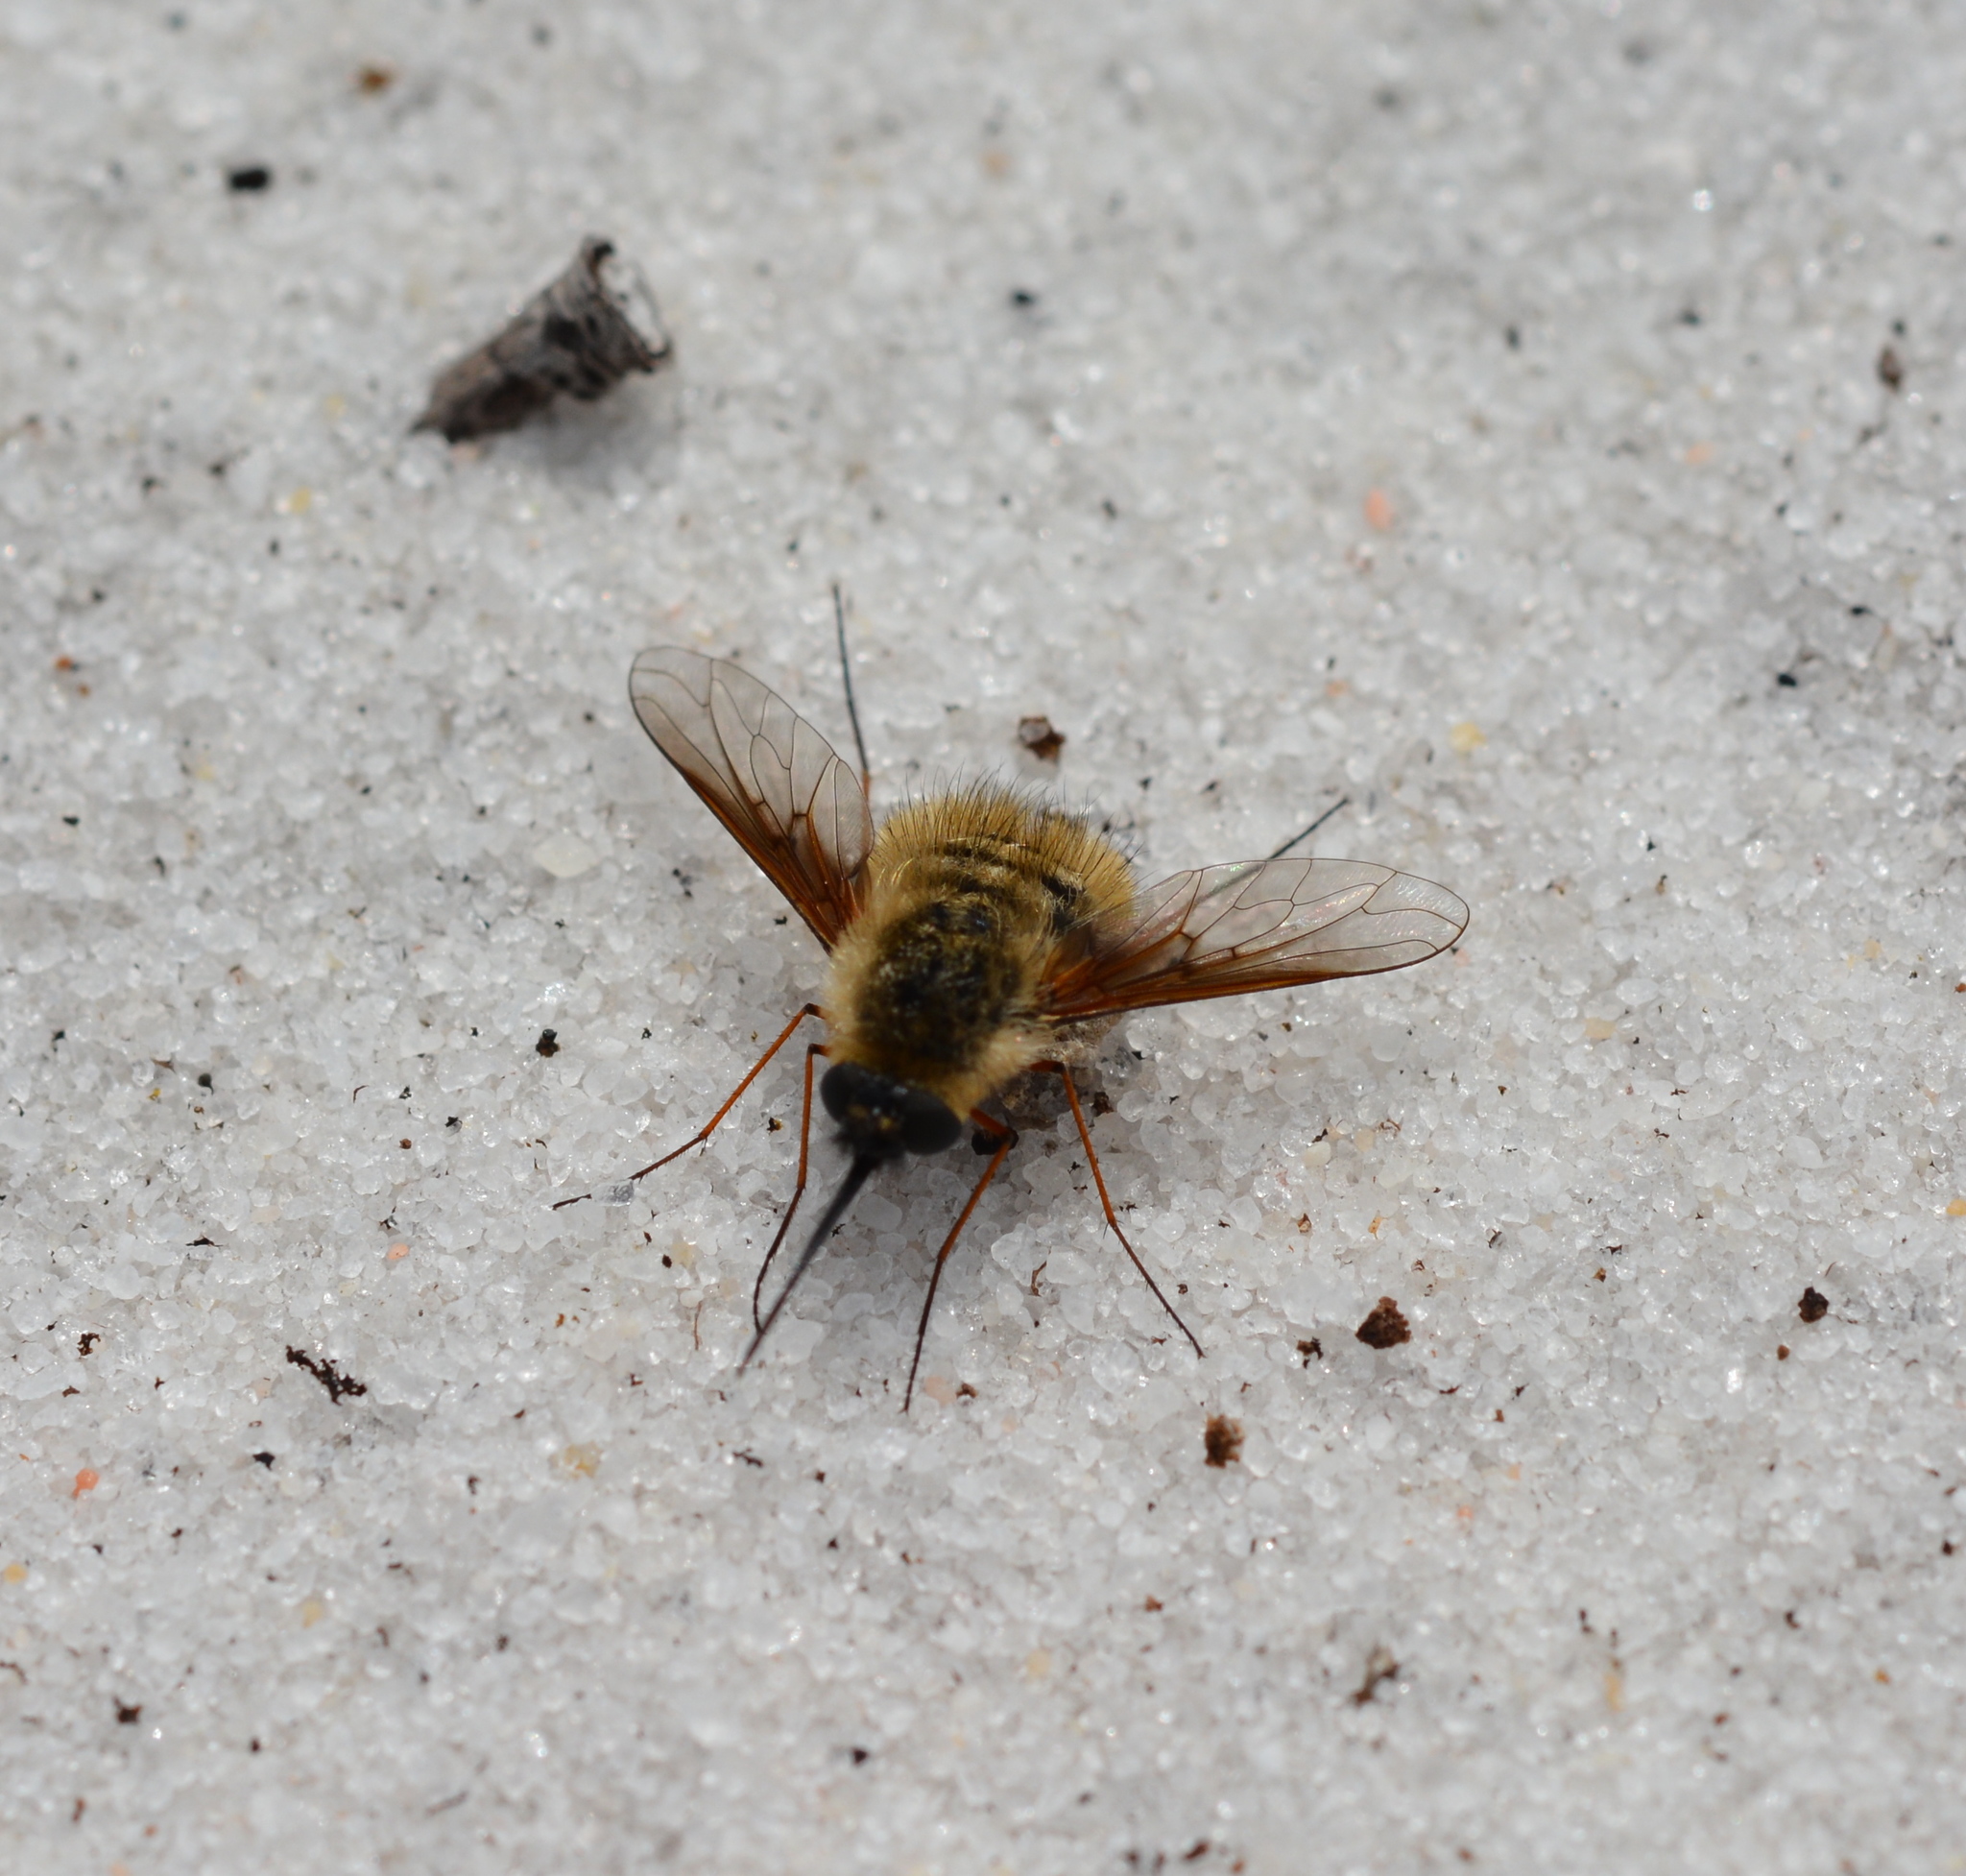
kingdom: Animalia
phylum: Arthropoda
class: Insecta
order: Diptera
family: Bombyliidae
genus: Bombylius
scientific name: Bombylius mexicanus
